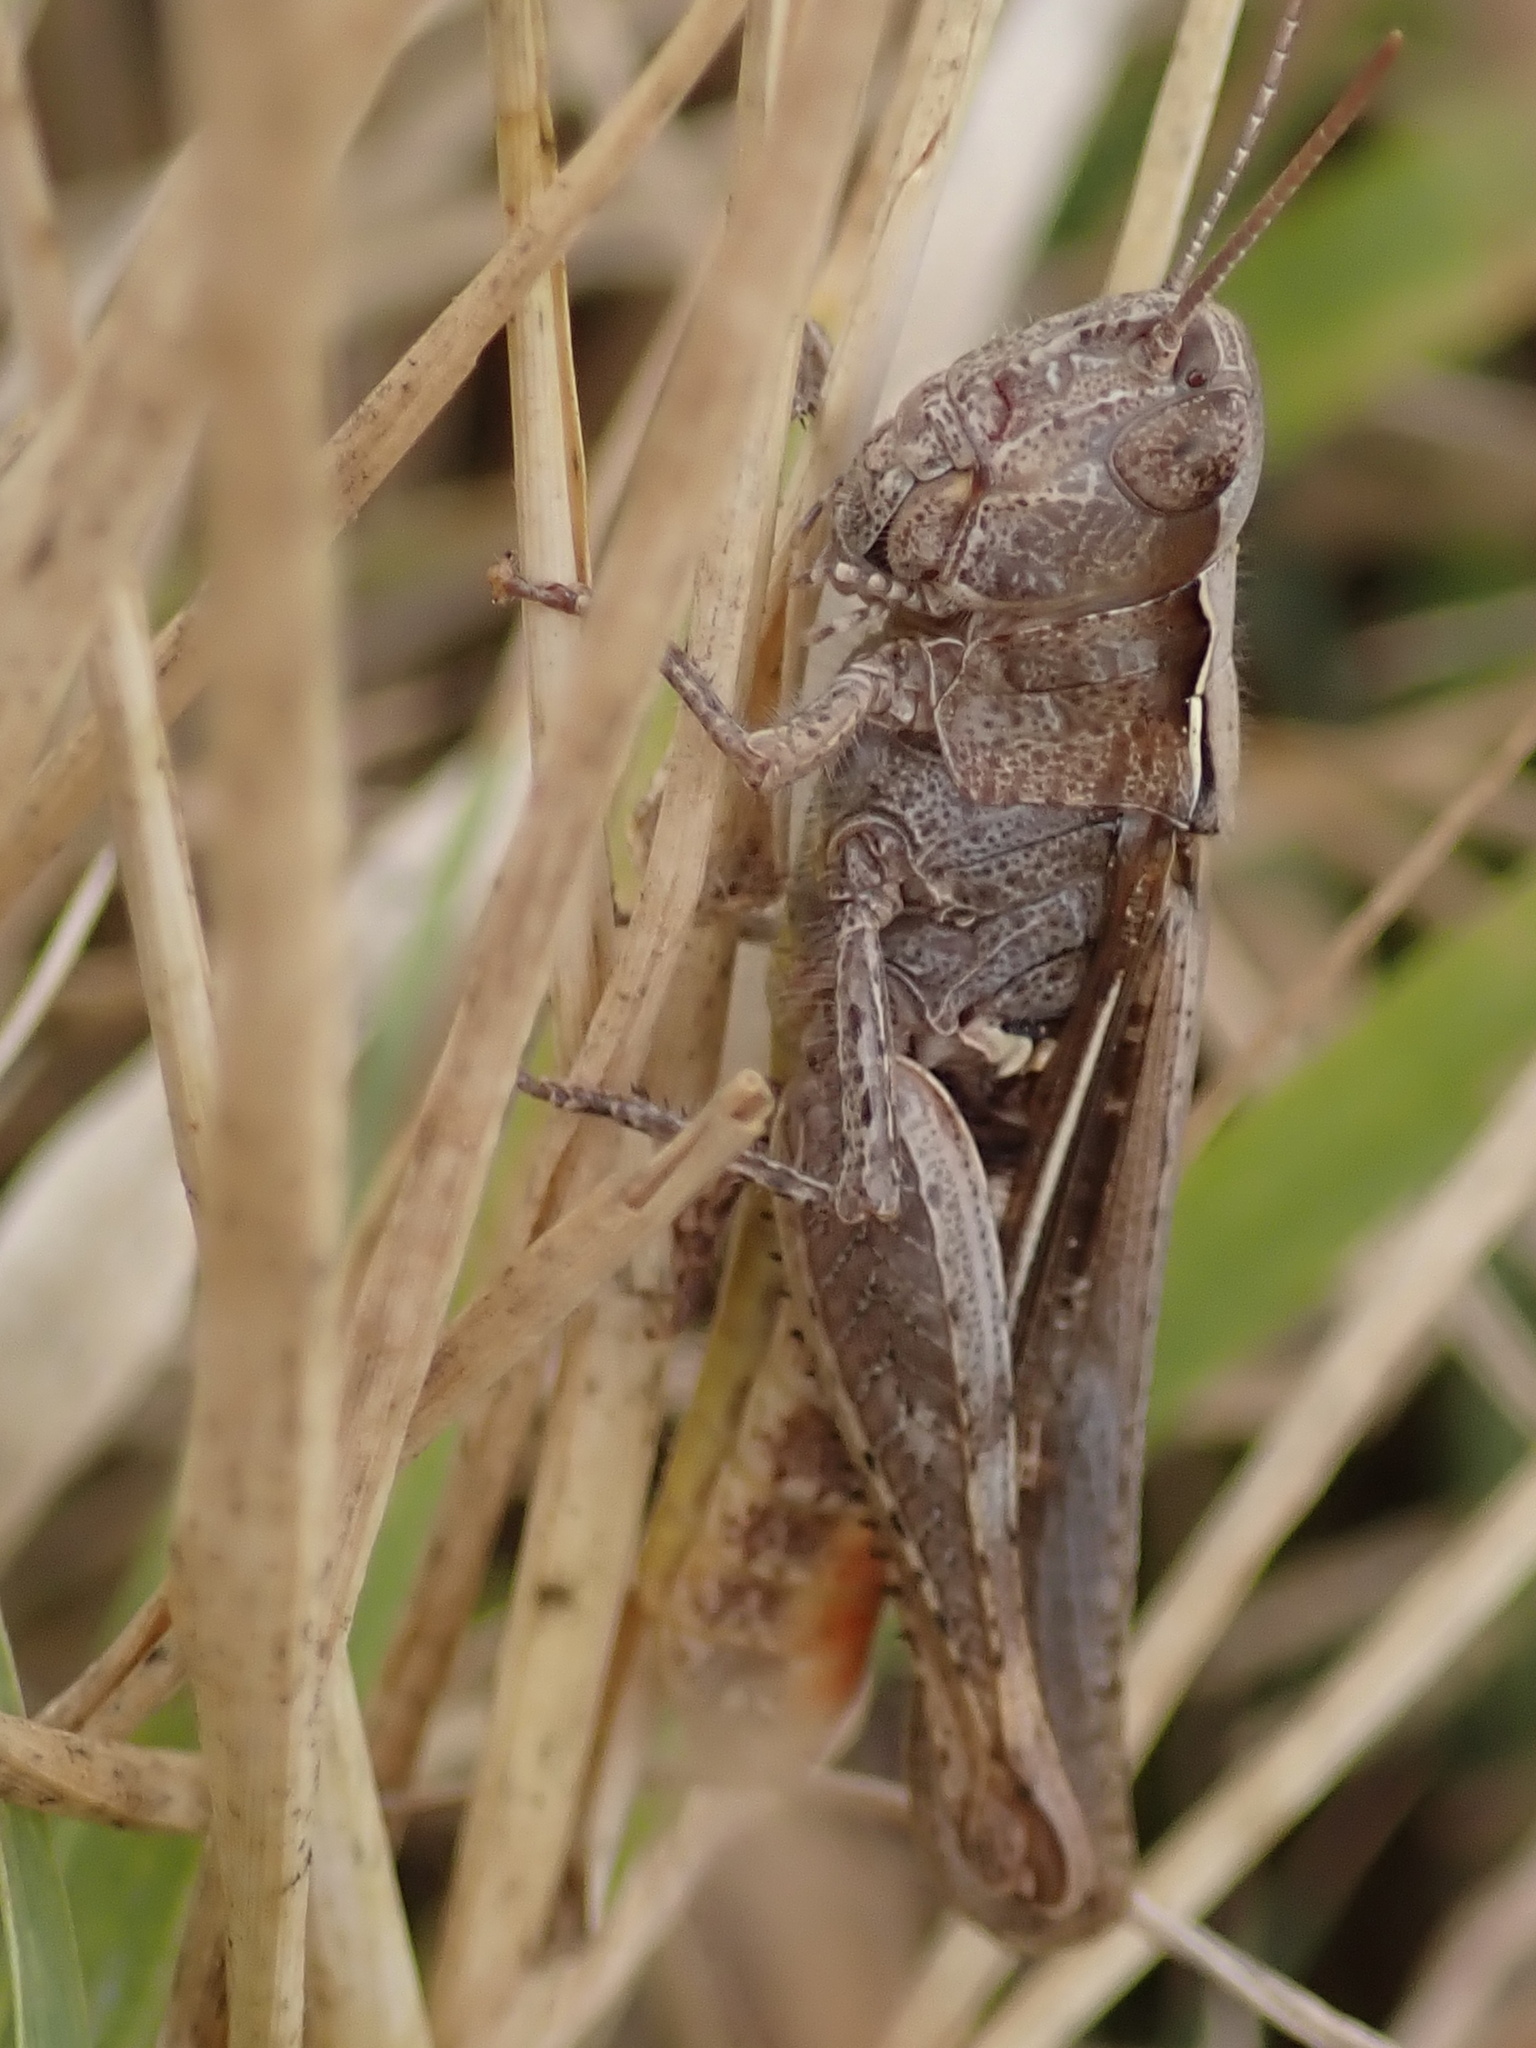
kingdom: Animalia
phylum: Arthropoda
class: Insecta
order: Orthoptera
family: Acrididae
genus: Chorthippus
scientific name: Chorthippus vagans
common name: Heath grasshopper
